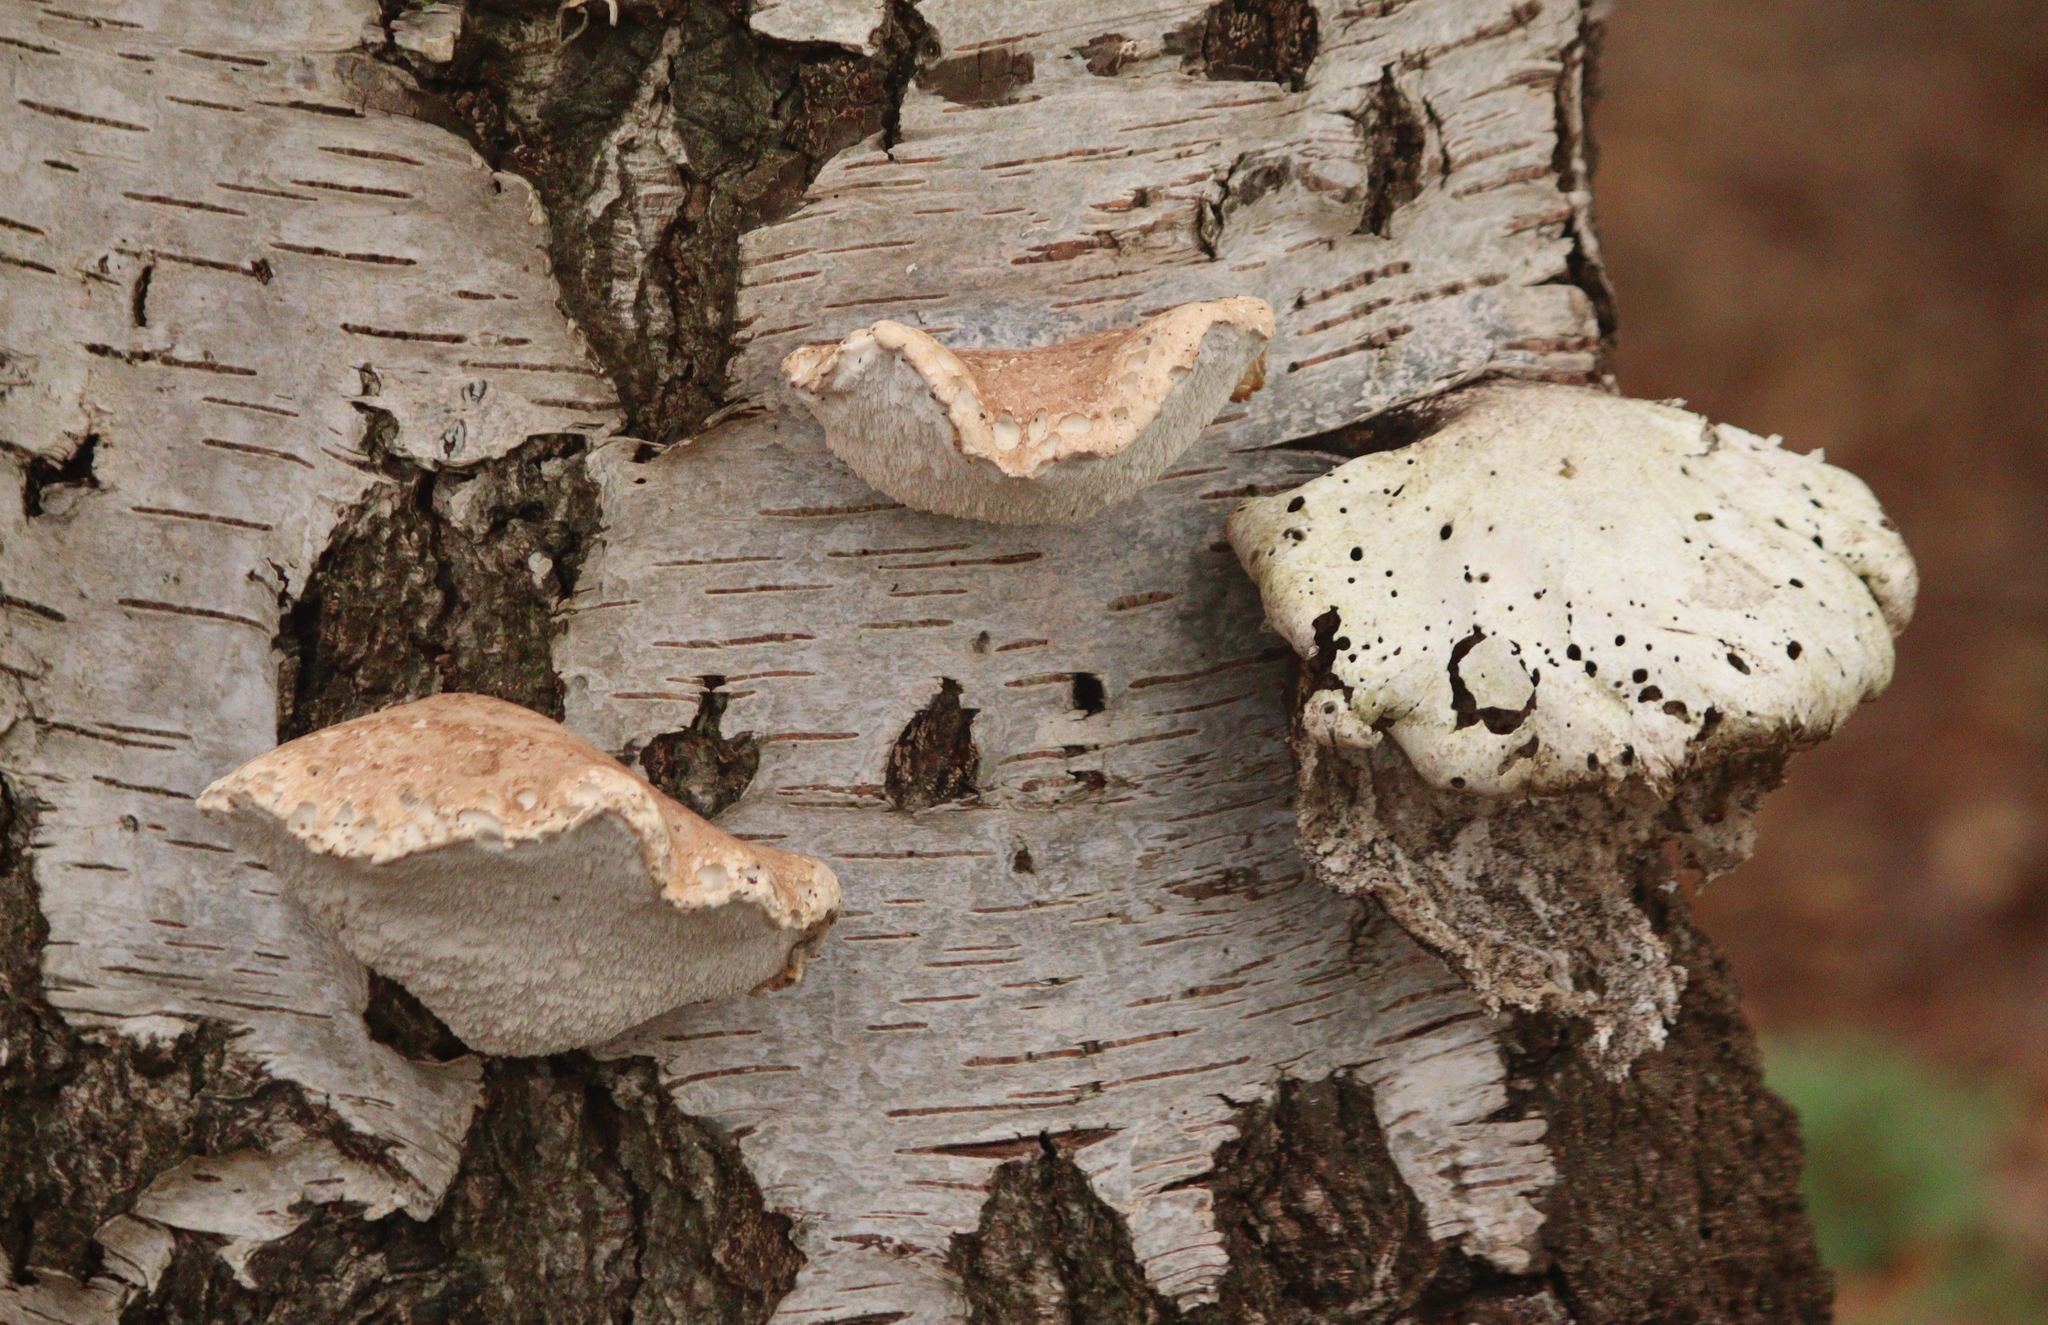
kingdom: Fungi
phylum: Basidiomycota
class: Agaricomycetes
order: Polyporales
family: Fomitopsidaceae
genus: Fomitopsis
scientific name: Fomitopsis betulina
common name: Birch polypore
